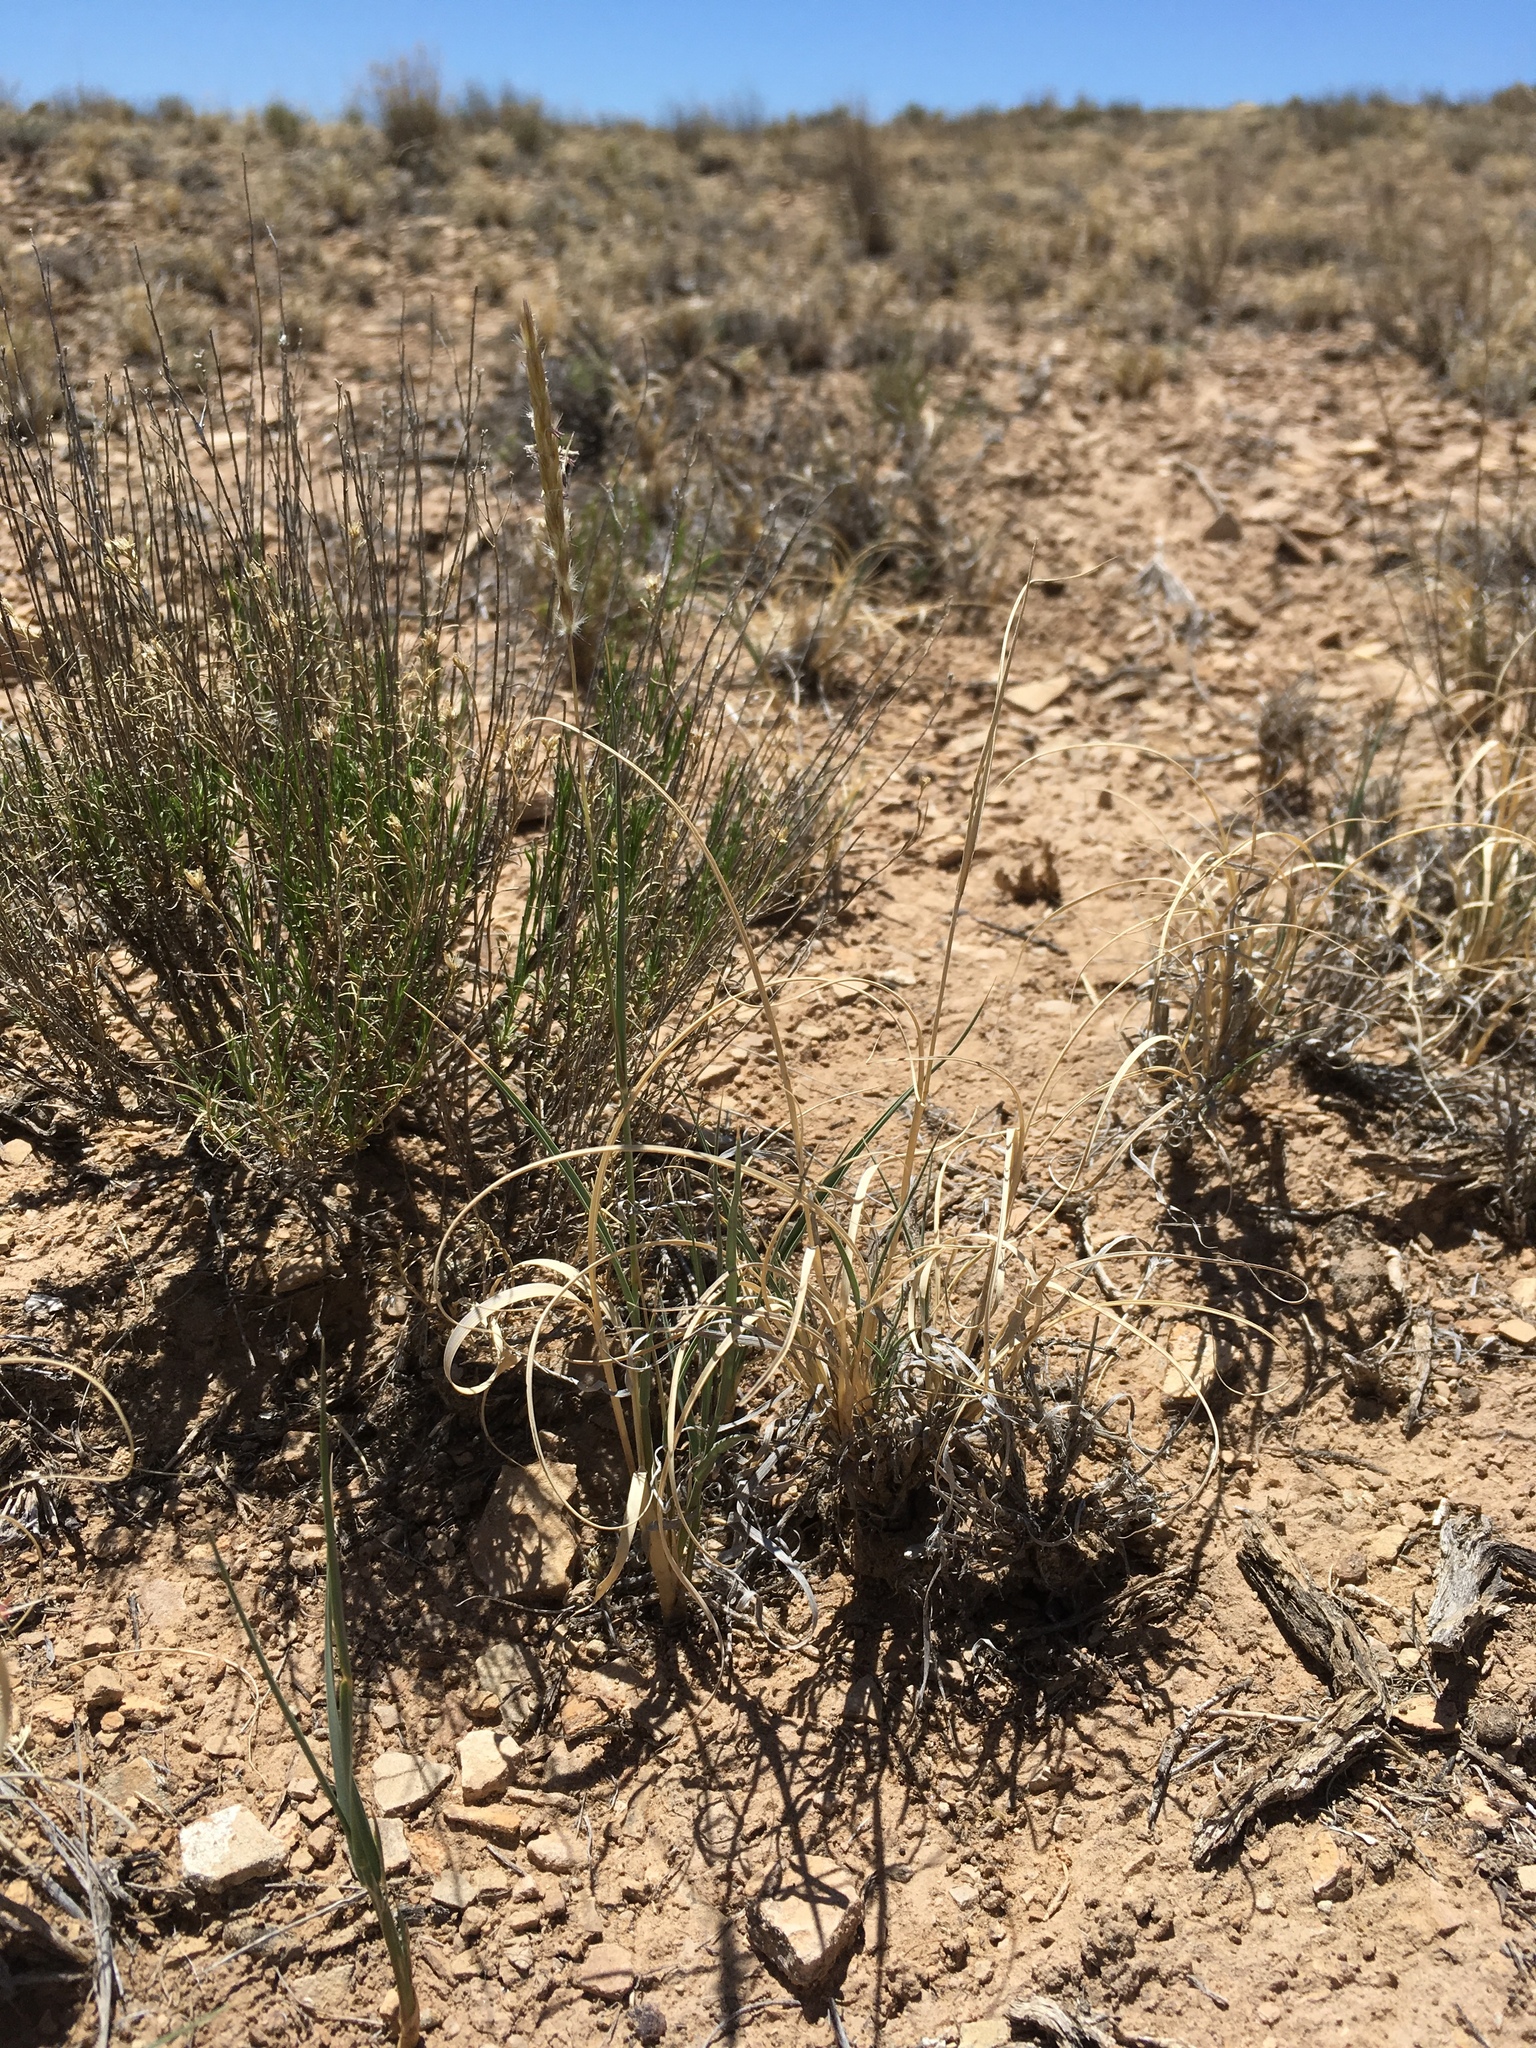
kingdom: Plantae
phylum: Tracheophyta
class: Liliopsida
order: Poales
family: Poaceae
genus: Hilaria
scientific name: Hilaria jamesii
